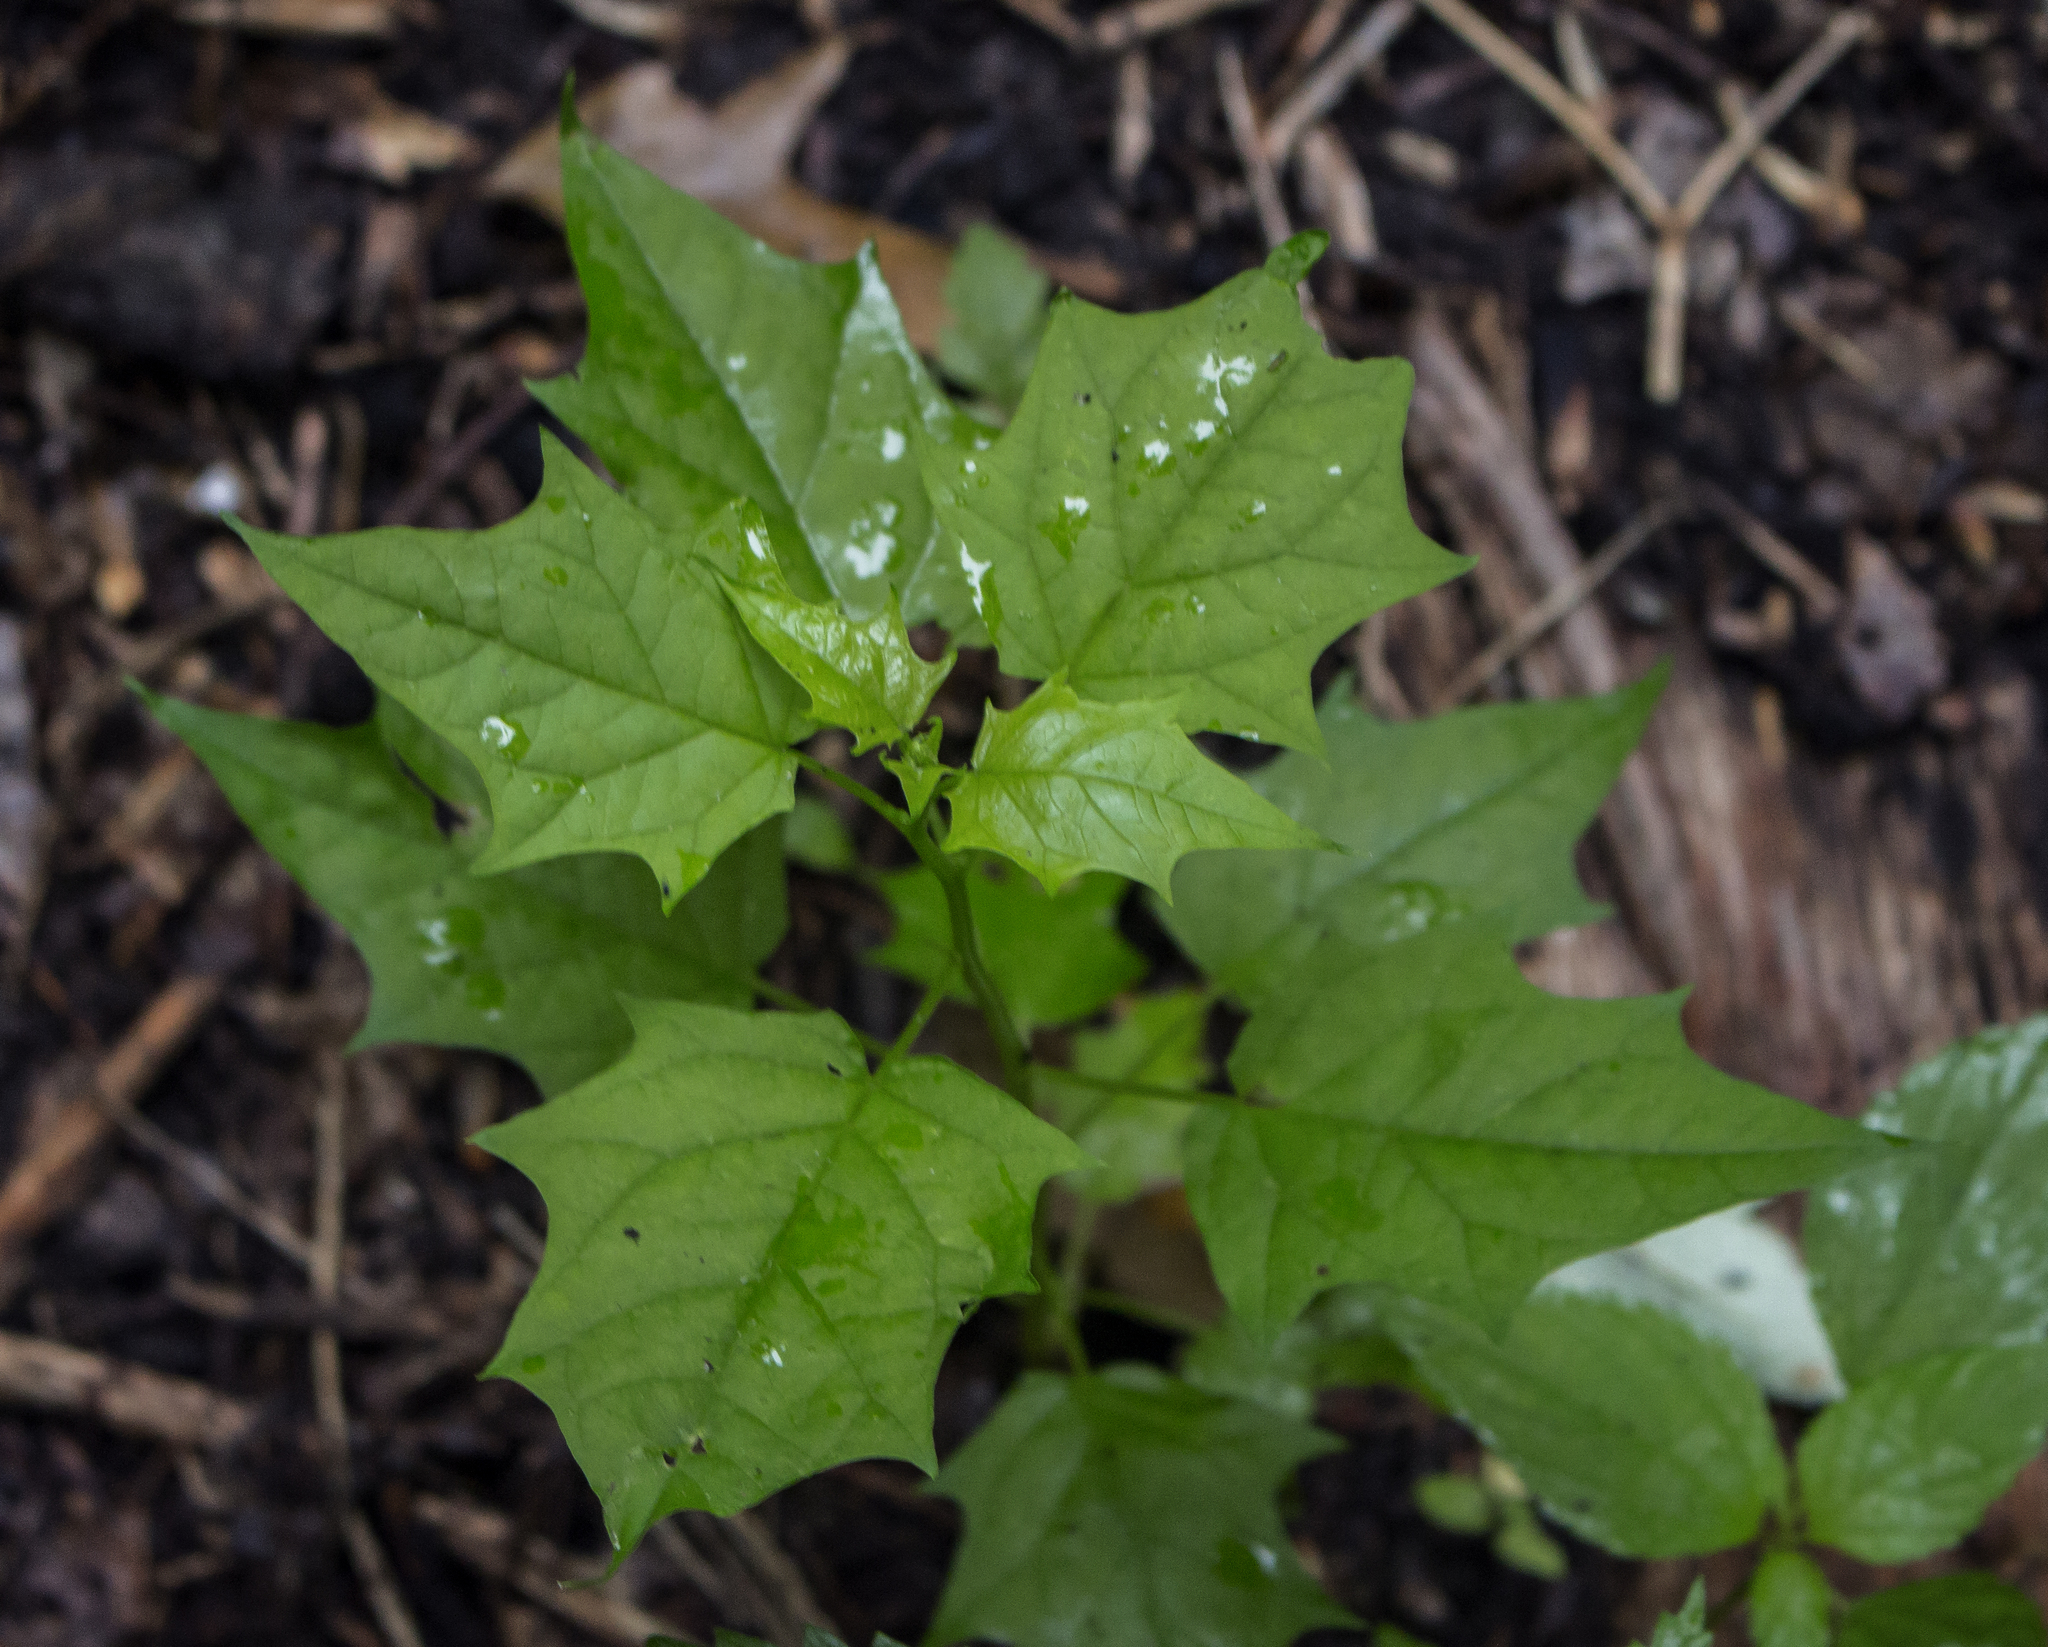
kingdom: Plantae
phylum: Tracheophyta
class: Magnoliopsida
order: Caryophyllales
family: Amaranthaceae
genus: Chenopodiastrum
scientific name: Chenopodiastrum hybridum
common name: Mapleleaf goosefoot
